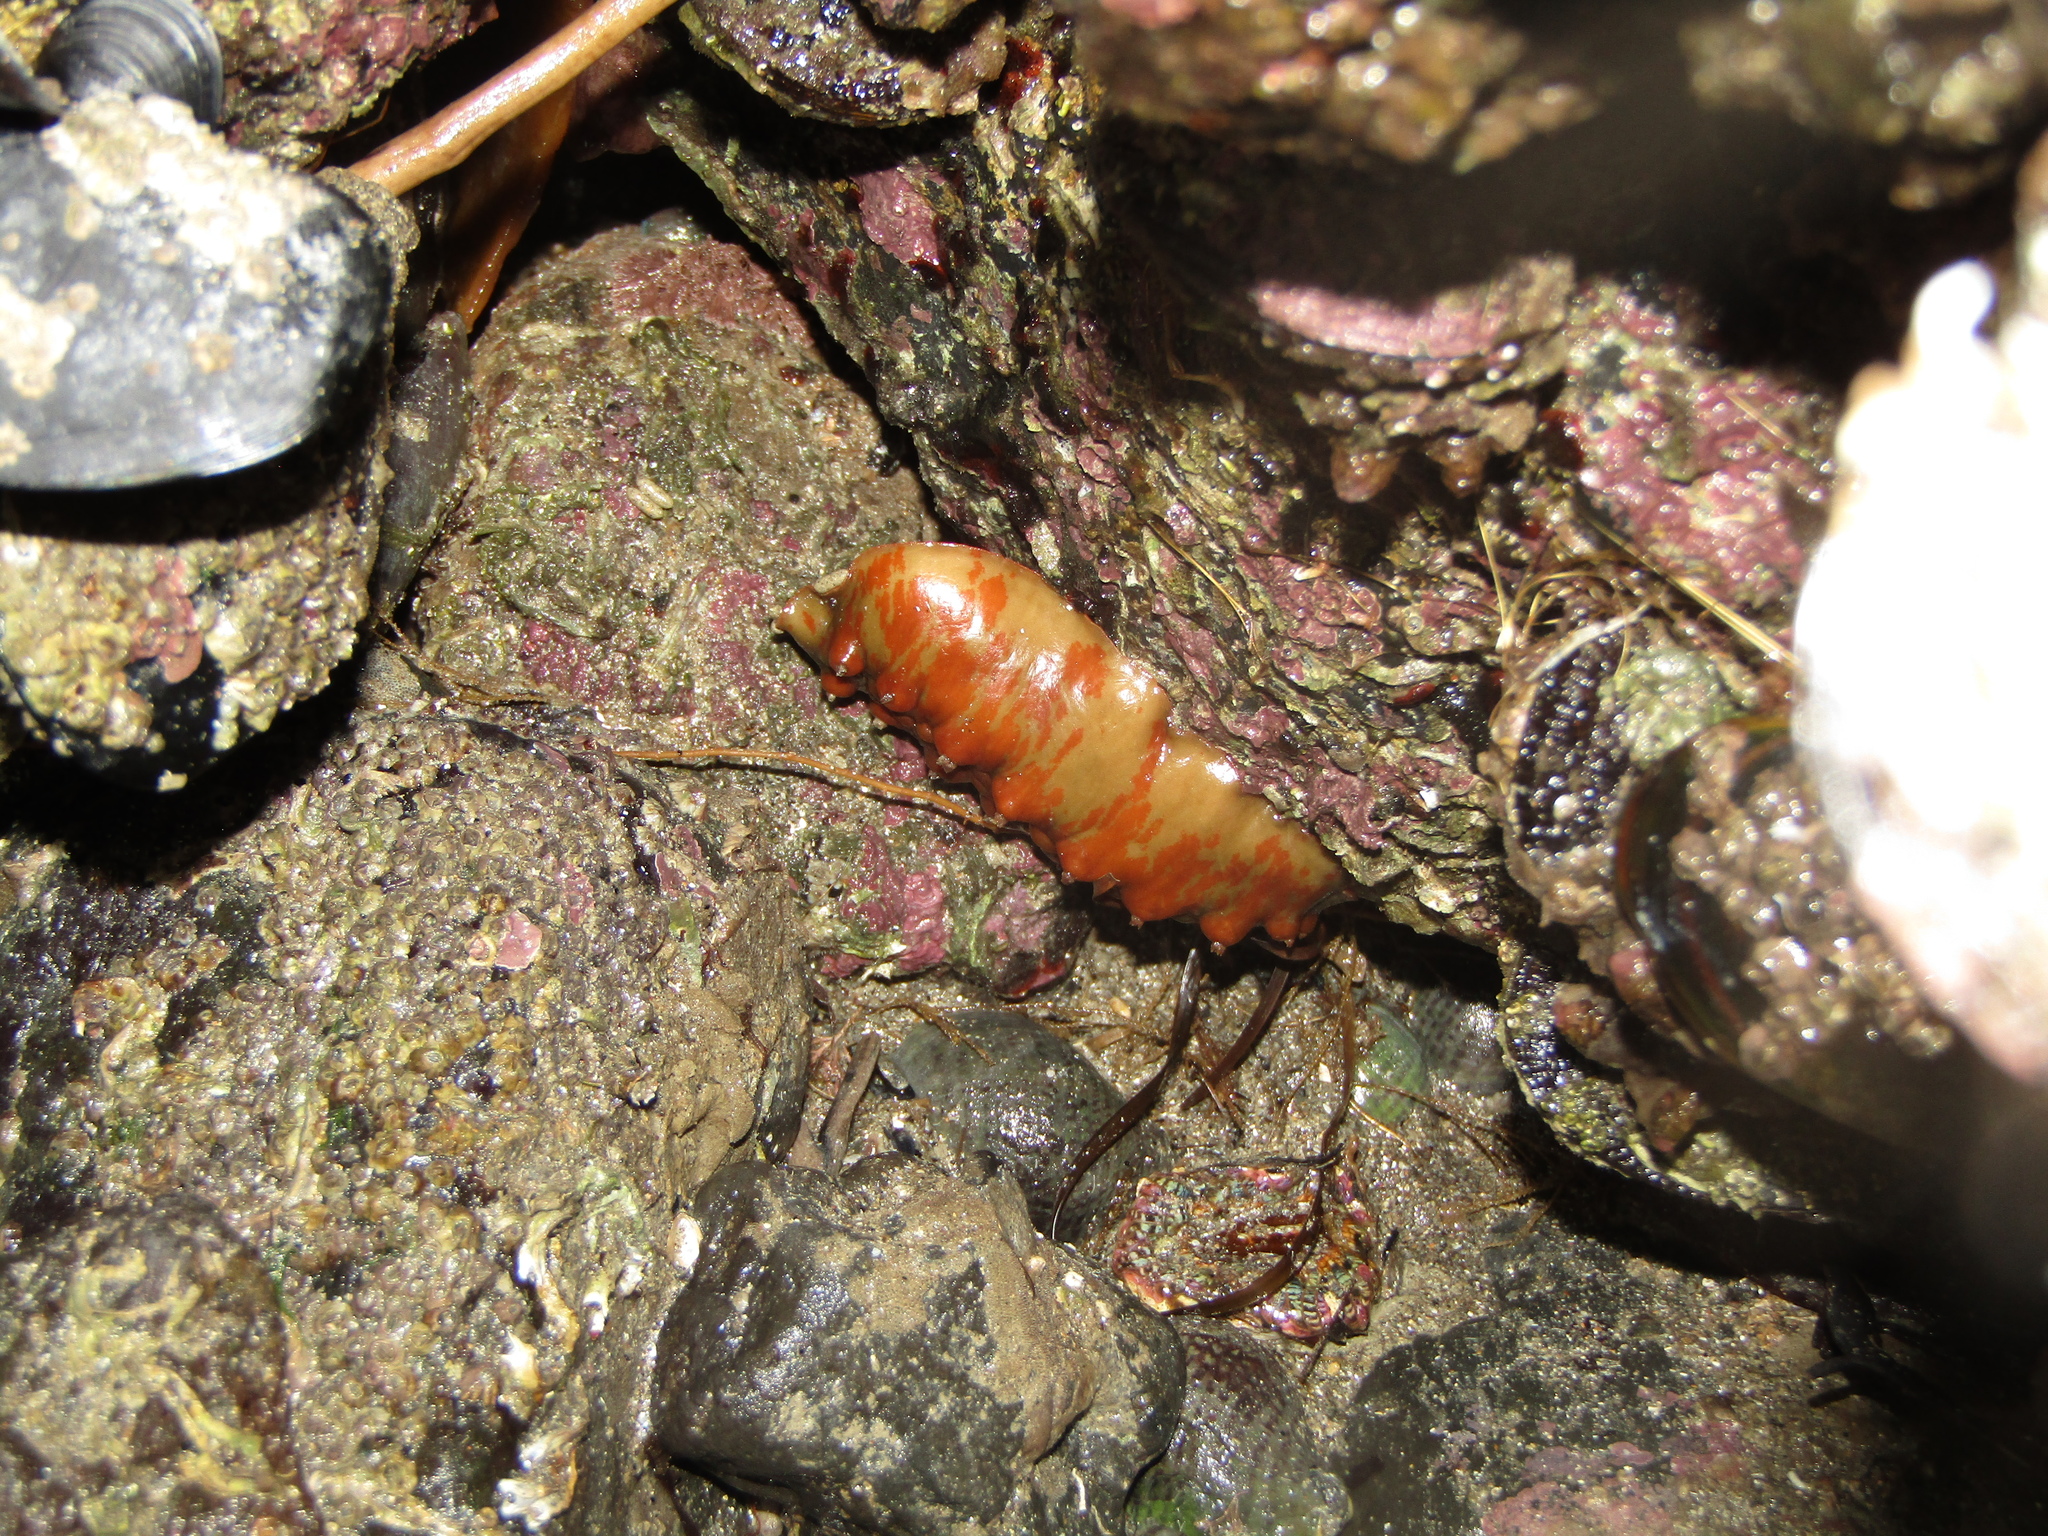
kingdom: Animalia
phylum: Mollusca
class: Polyplacophora
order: Chitonida
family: Acanthochitonidae
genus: Cryptoconchus
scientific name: Cryptoconchus porosus
